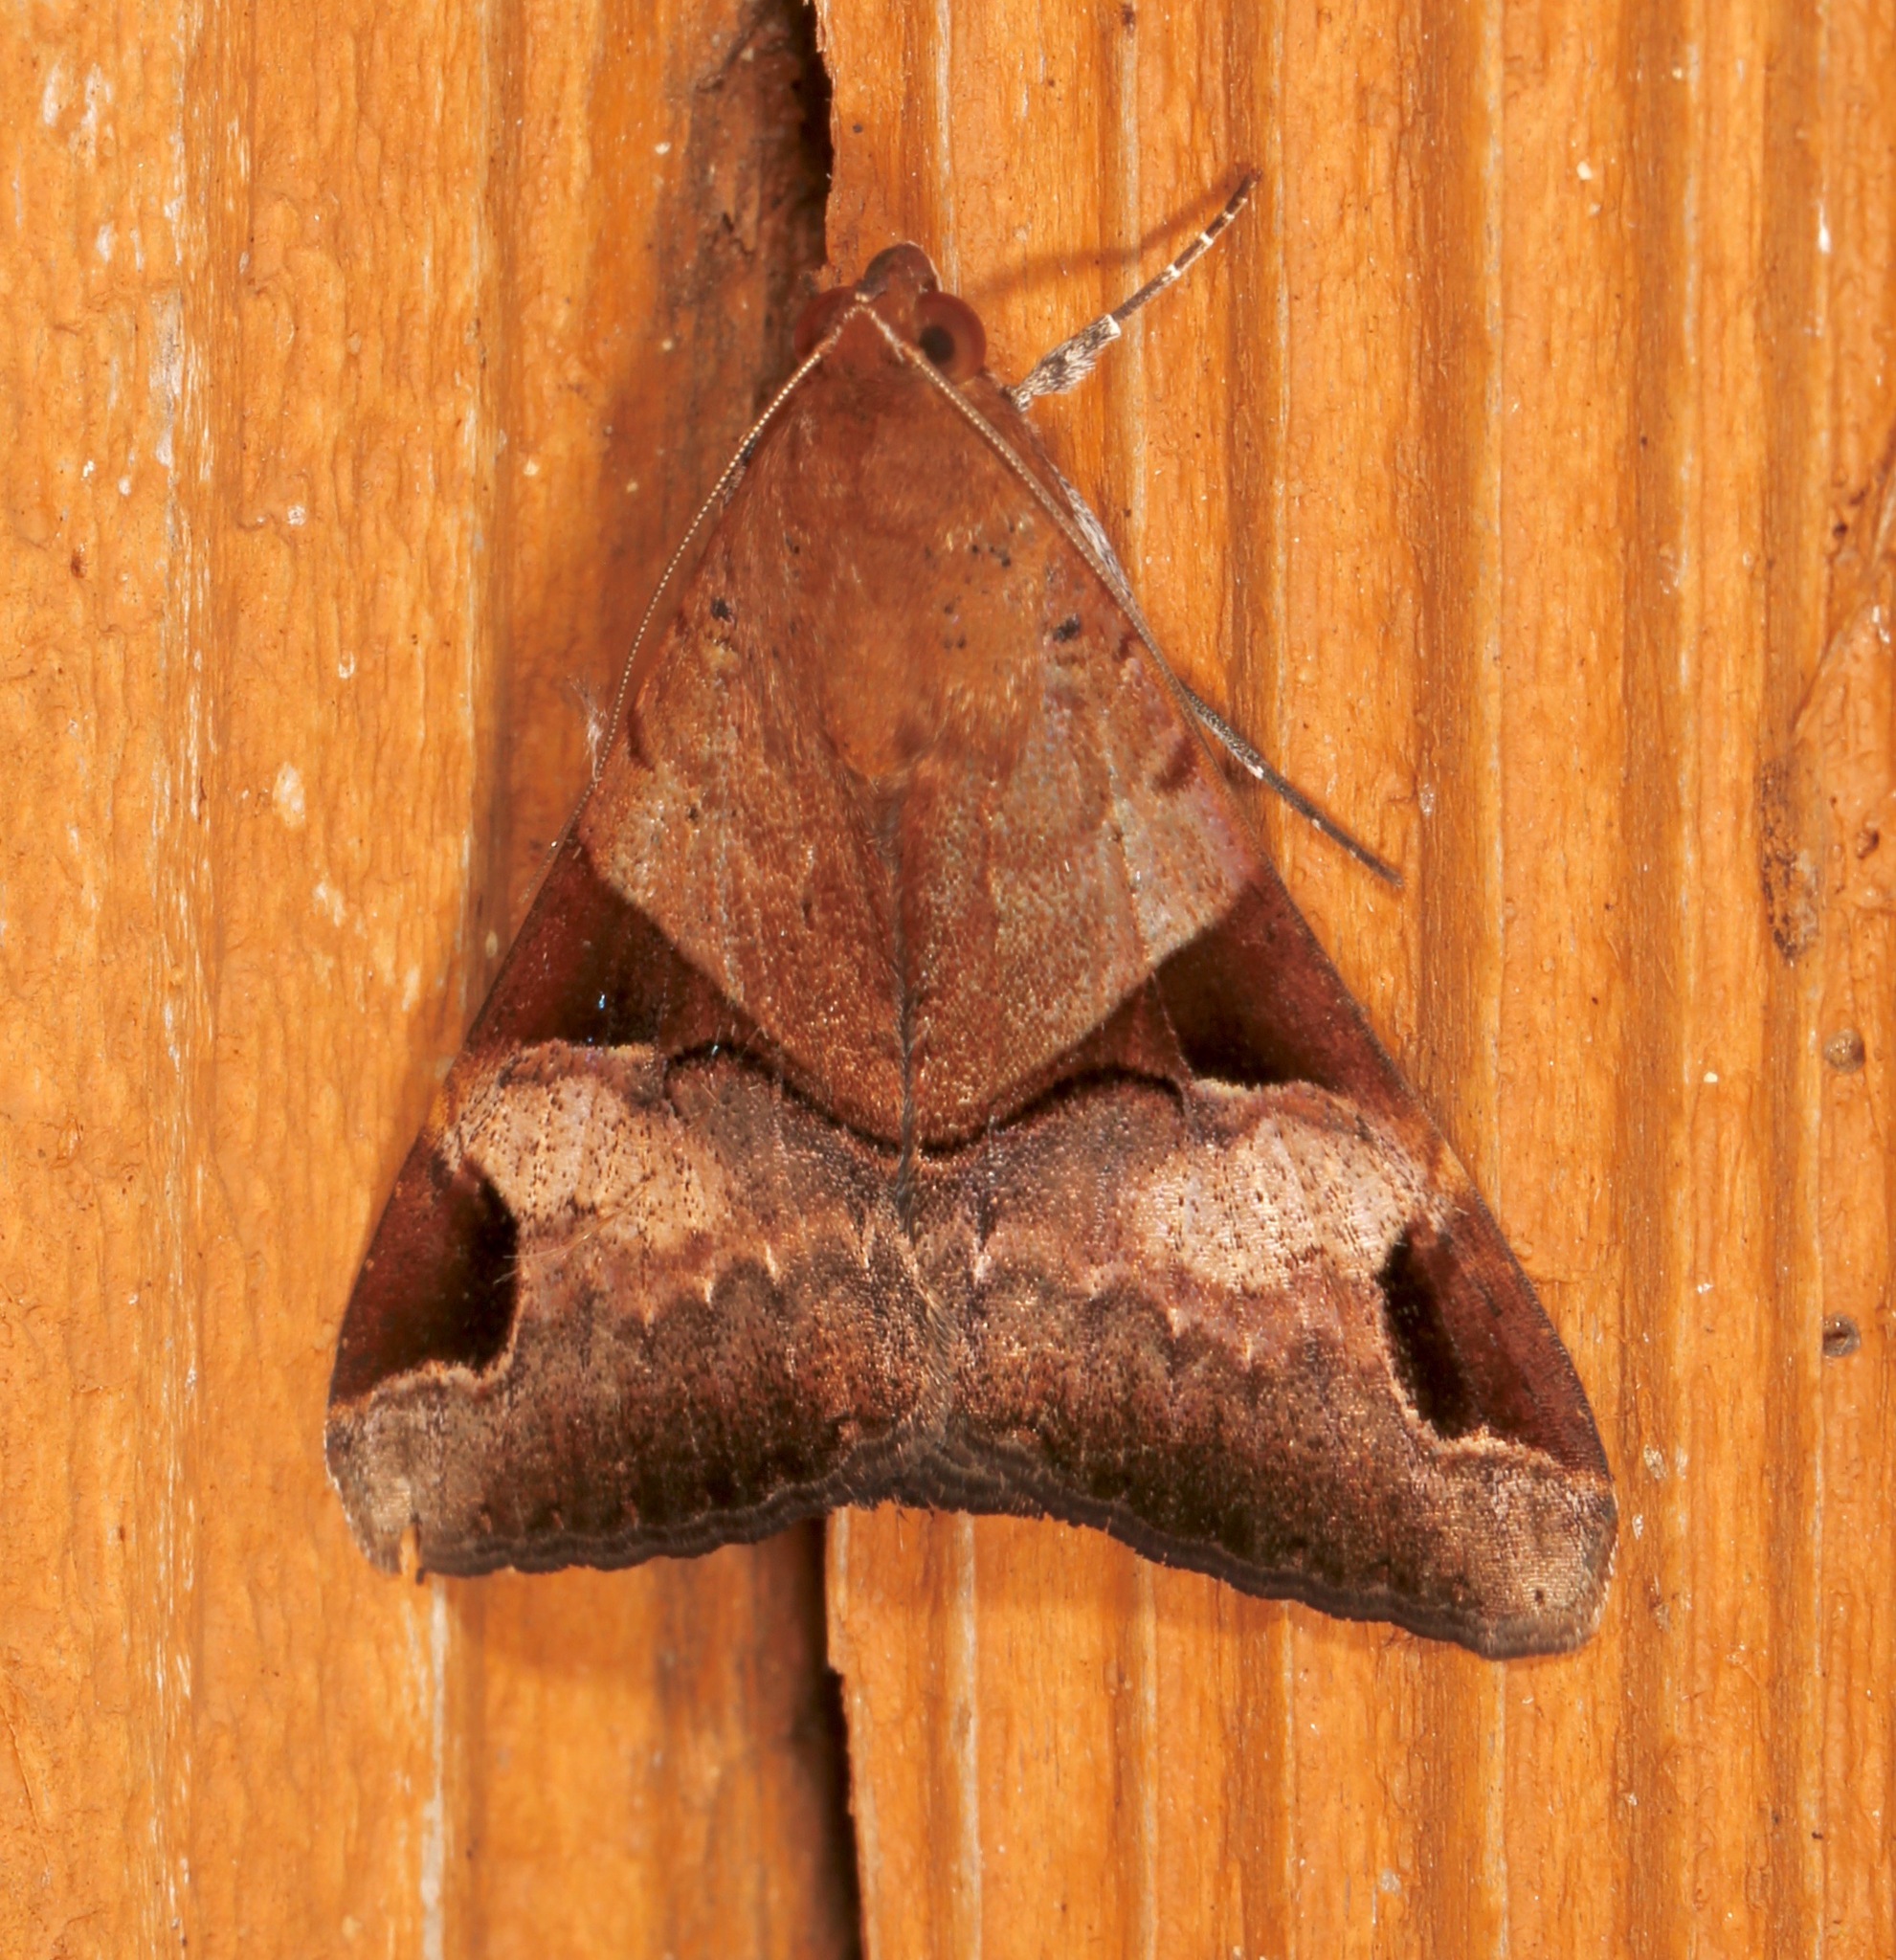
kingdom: Animalia
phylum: Arthropoda
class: Insecta
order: Lepidoptera
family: Erebidae
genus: Melipotis
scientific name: Melipotis fasciolaris
